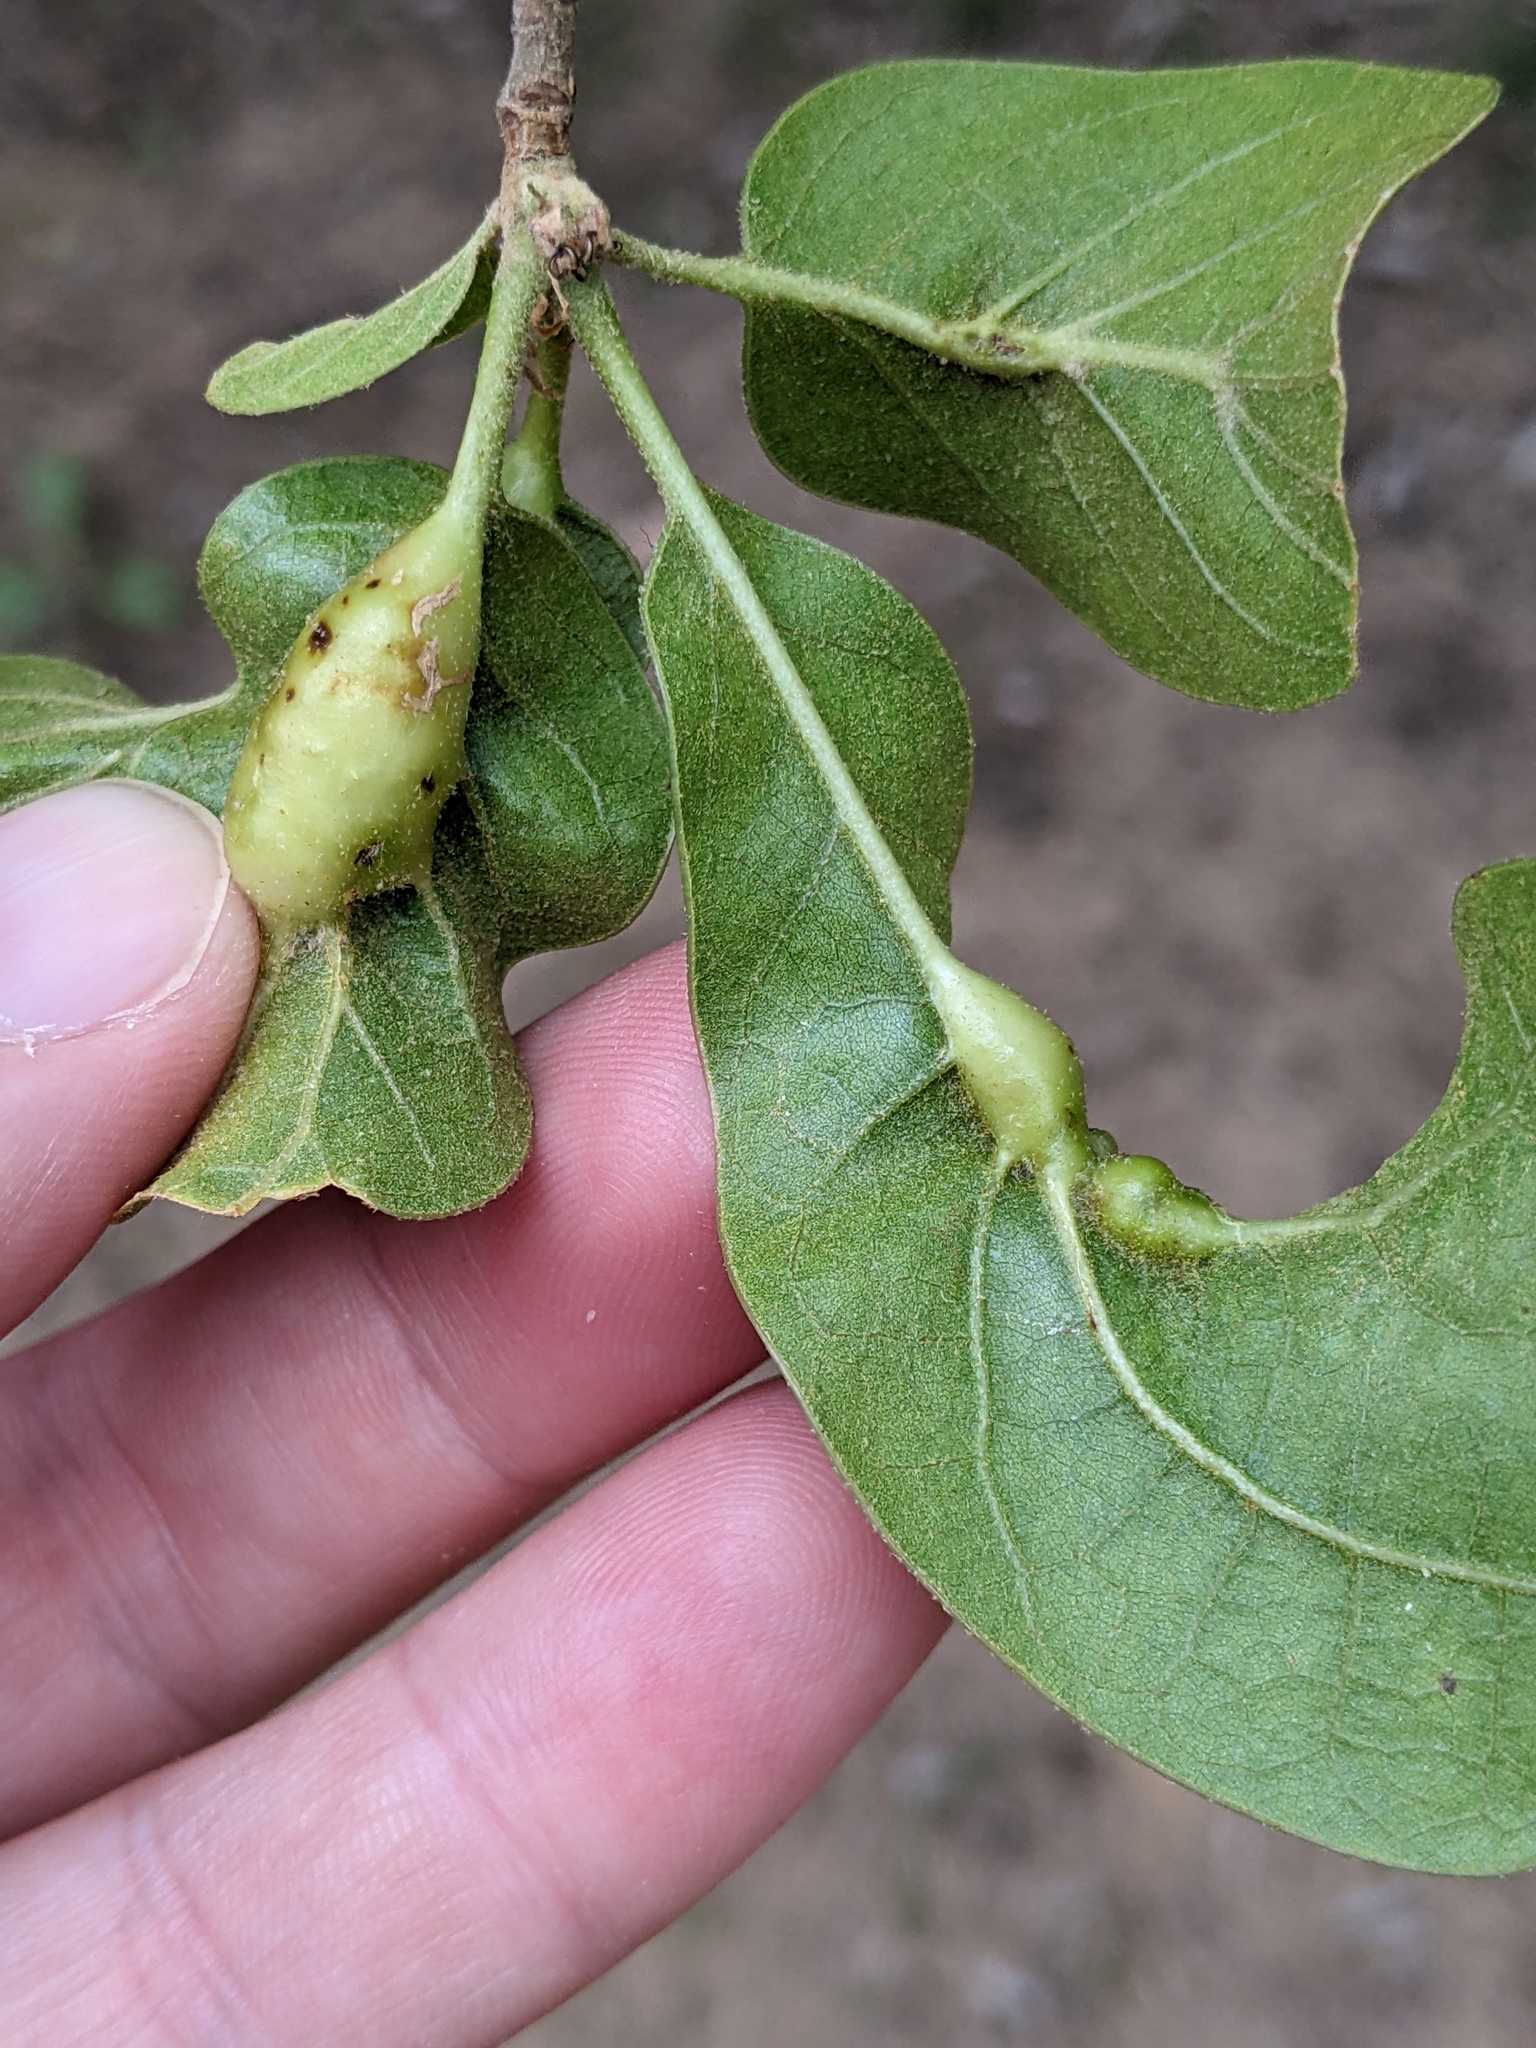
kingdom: Animalia
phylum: Arthropoda
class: Insecta
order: Hymenoptera
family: Cynipidae
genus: Callirhytis
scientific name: Callirhytis
